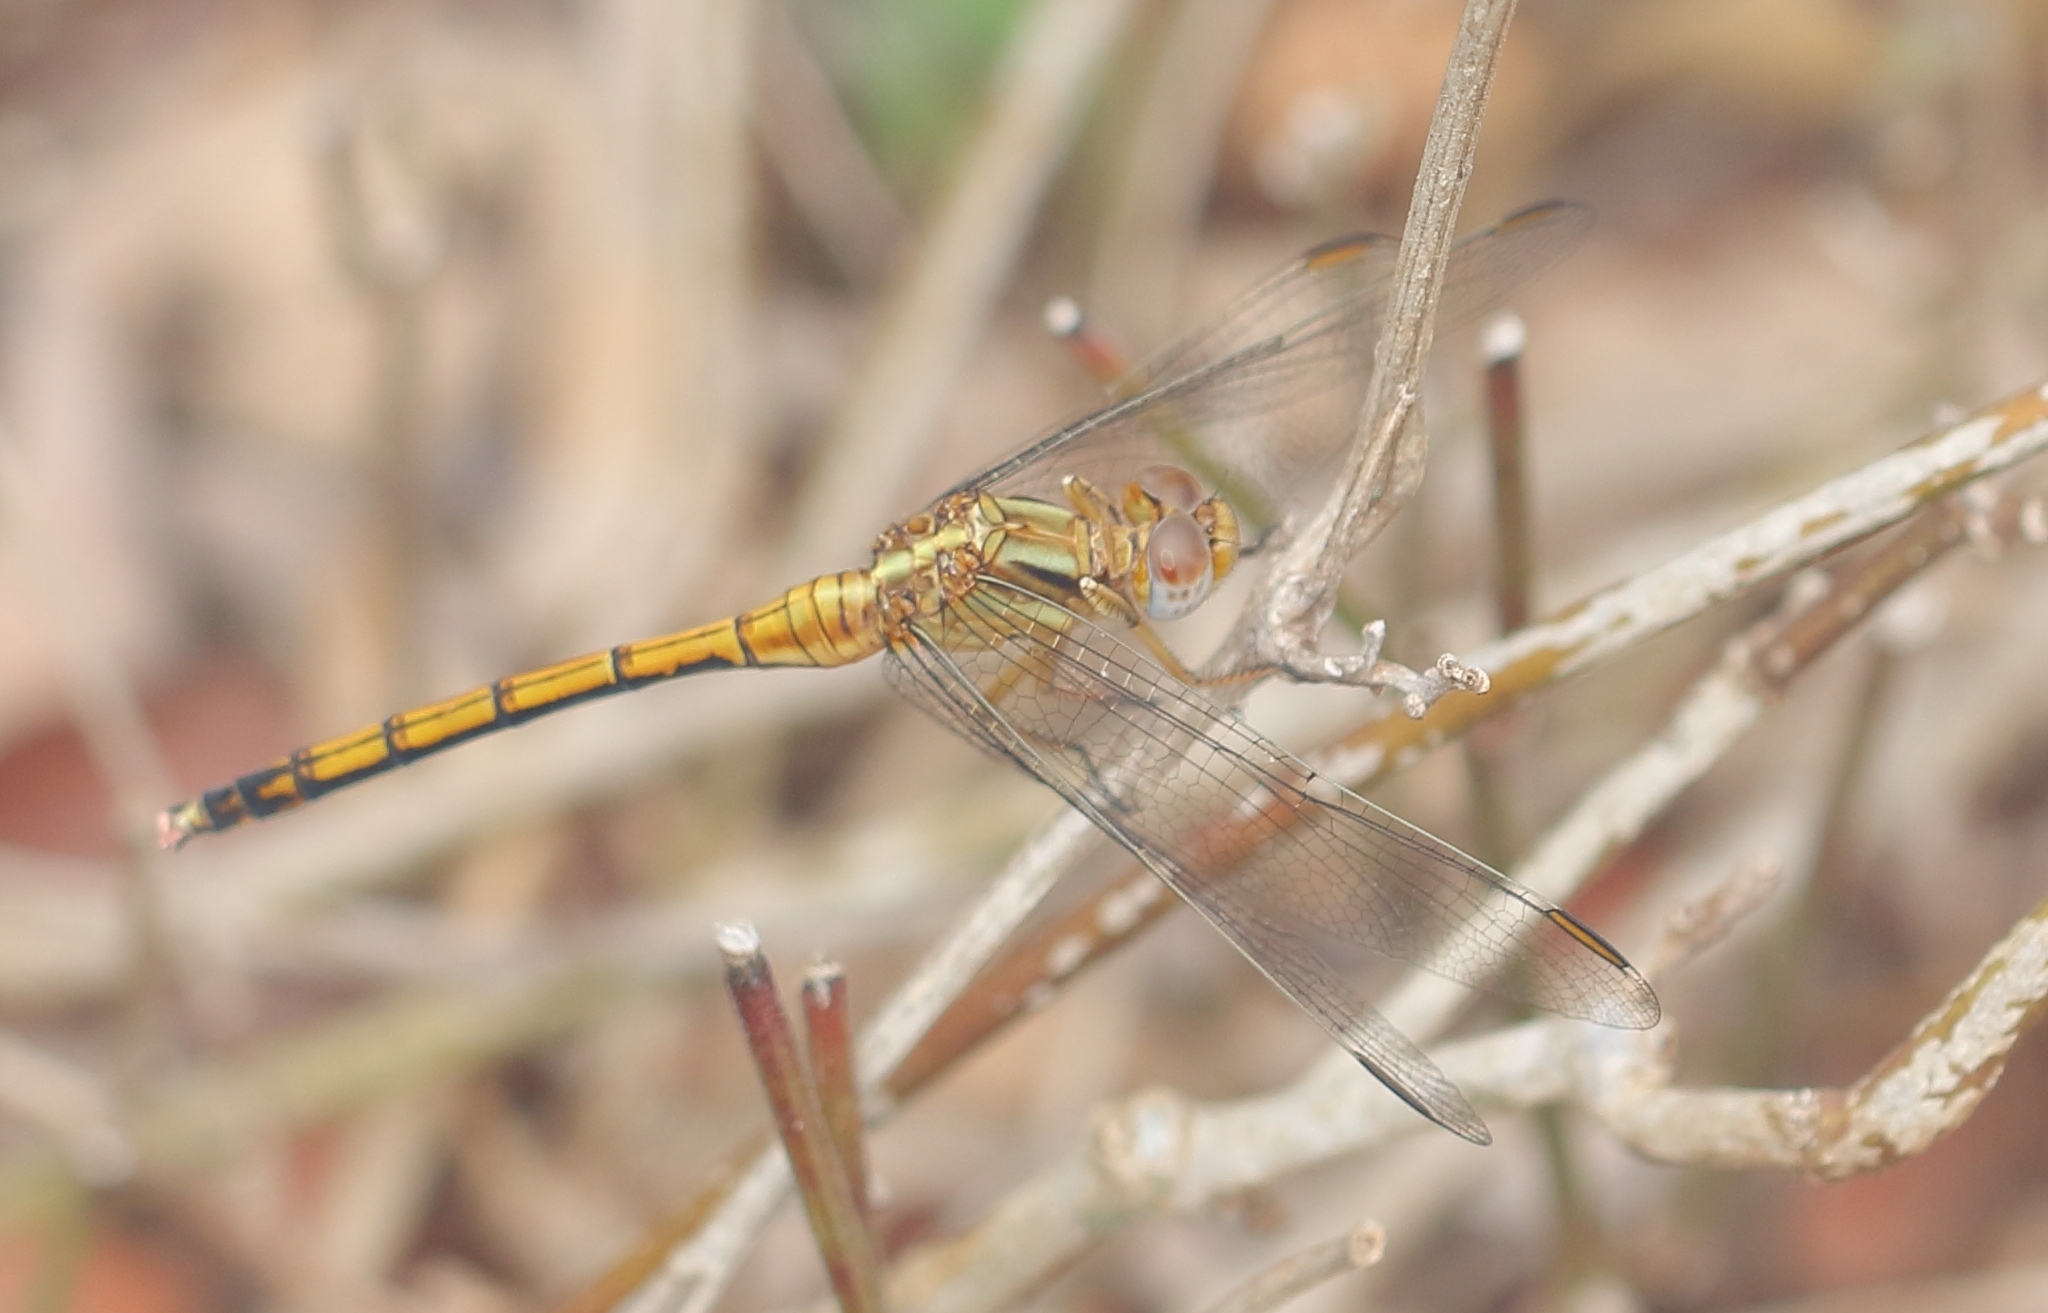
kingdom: Animalia
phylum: Arthropoda
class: Insecta
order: Odonata
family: Libellulidae
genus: Orthetrum
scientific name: Orthetrum machadoi
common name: Highland skimmer
